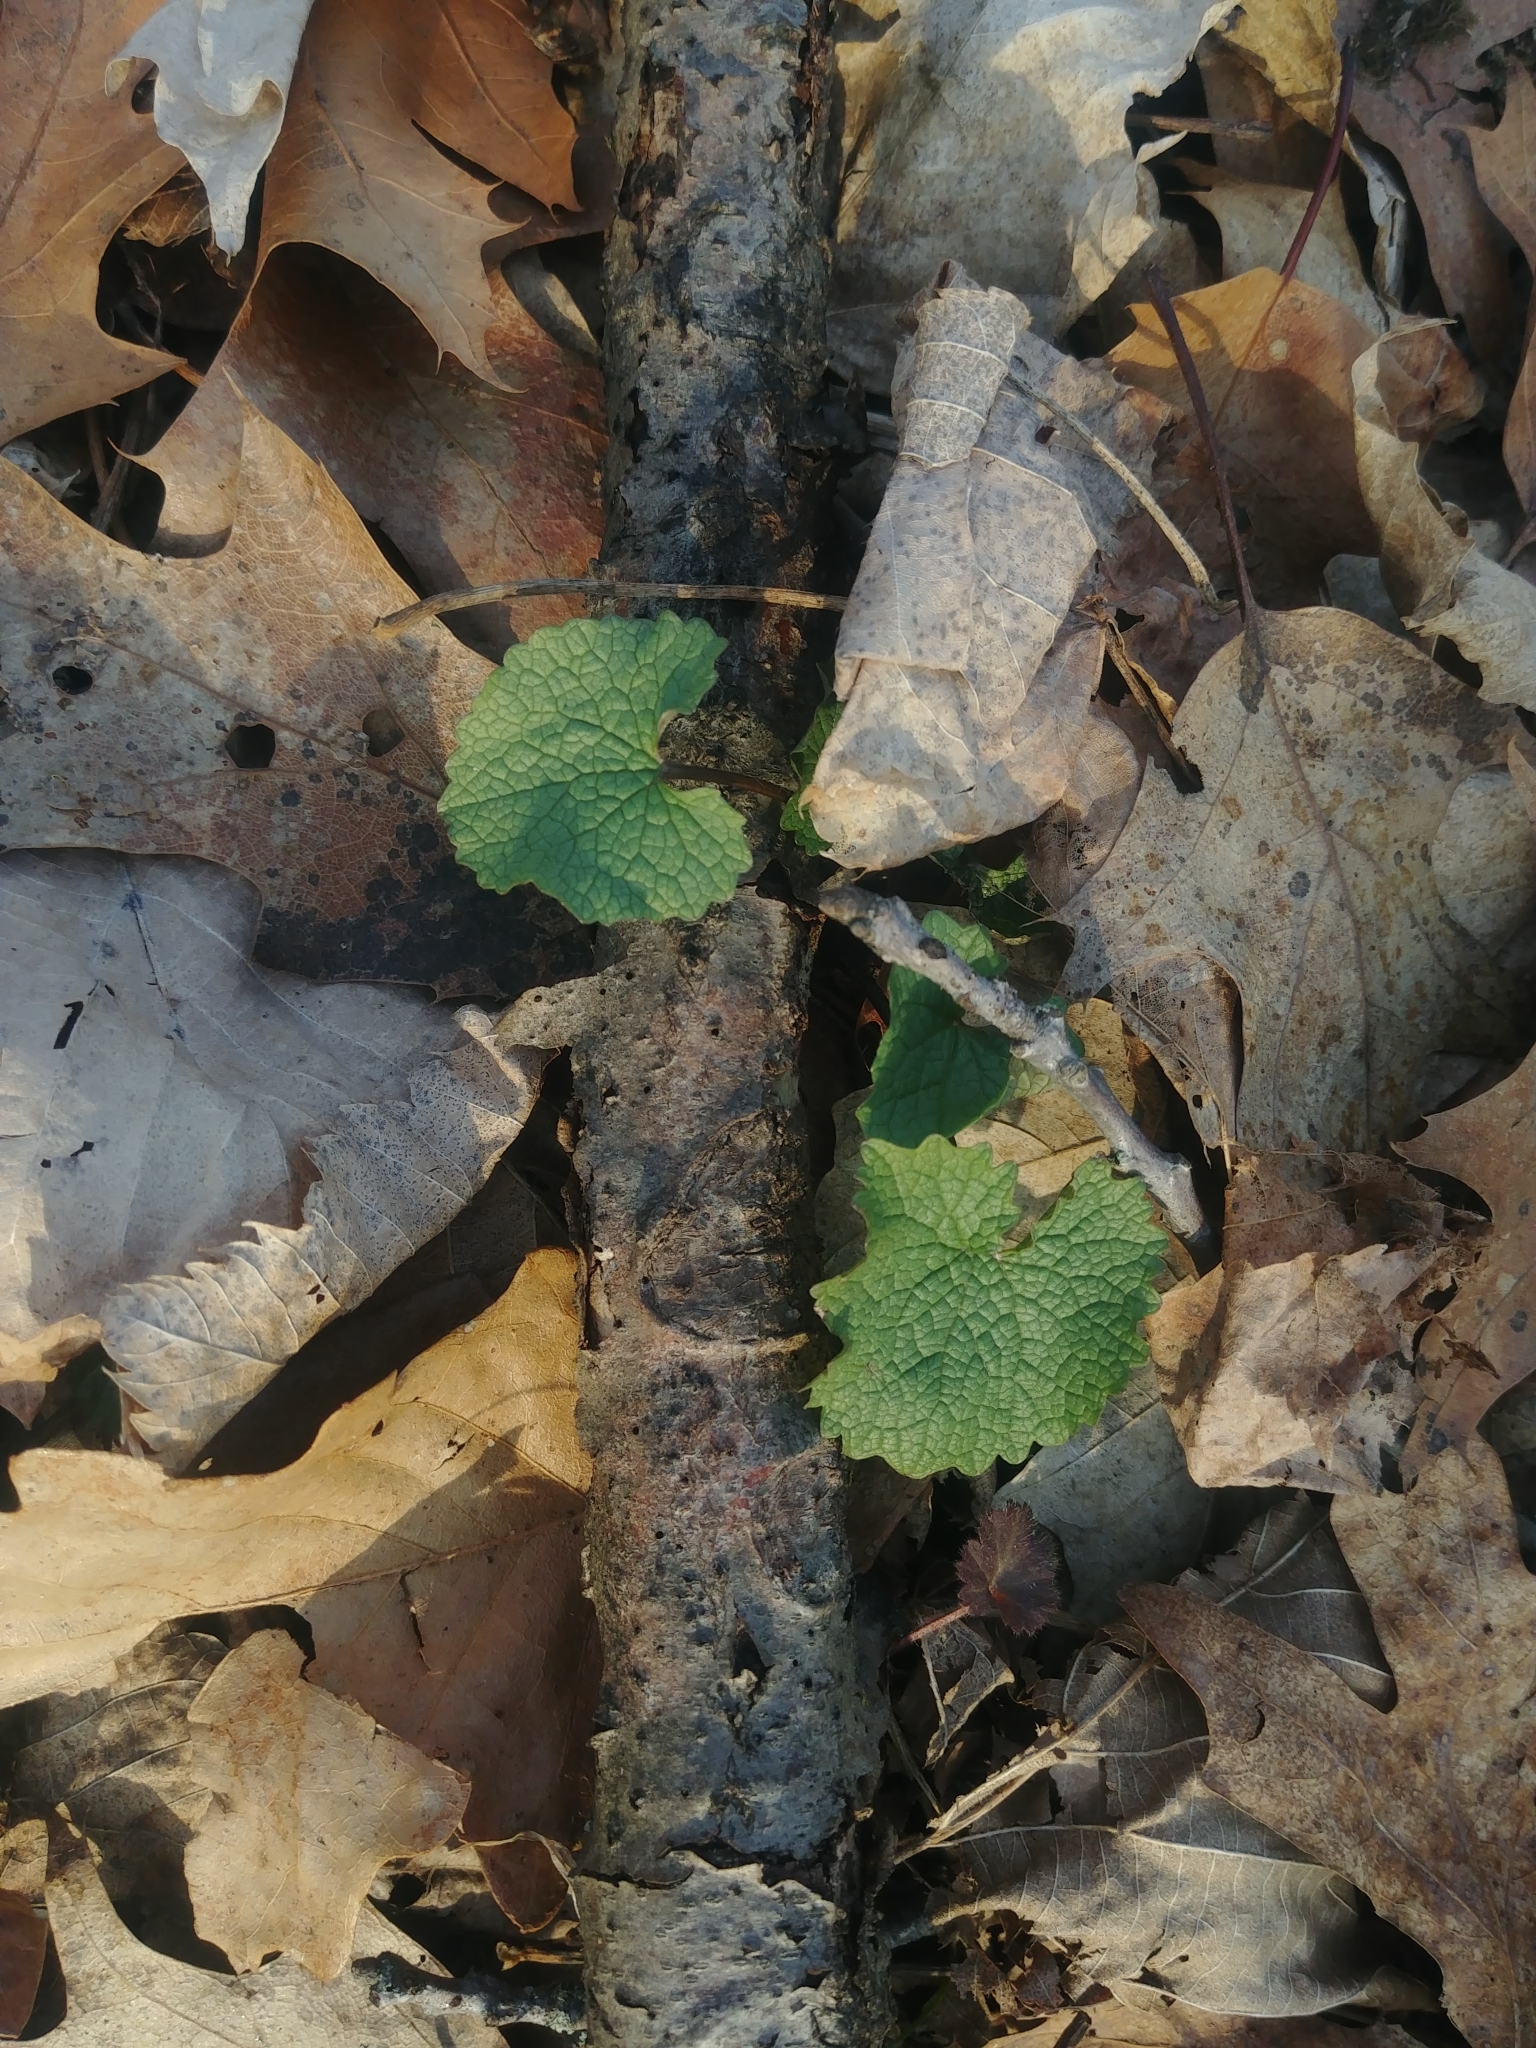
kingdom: Plantae
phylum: Tracheophyta
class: Magnoliopsida
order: Brassicales
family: Brassicaceae
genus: Alliaria
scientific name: Alliaria petiolata
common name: Garlic mustard
